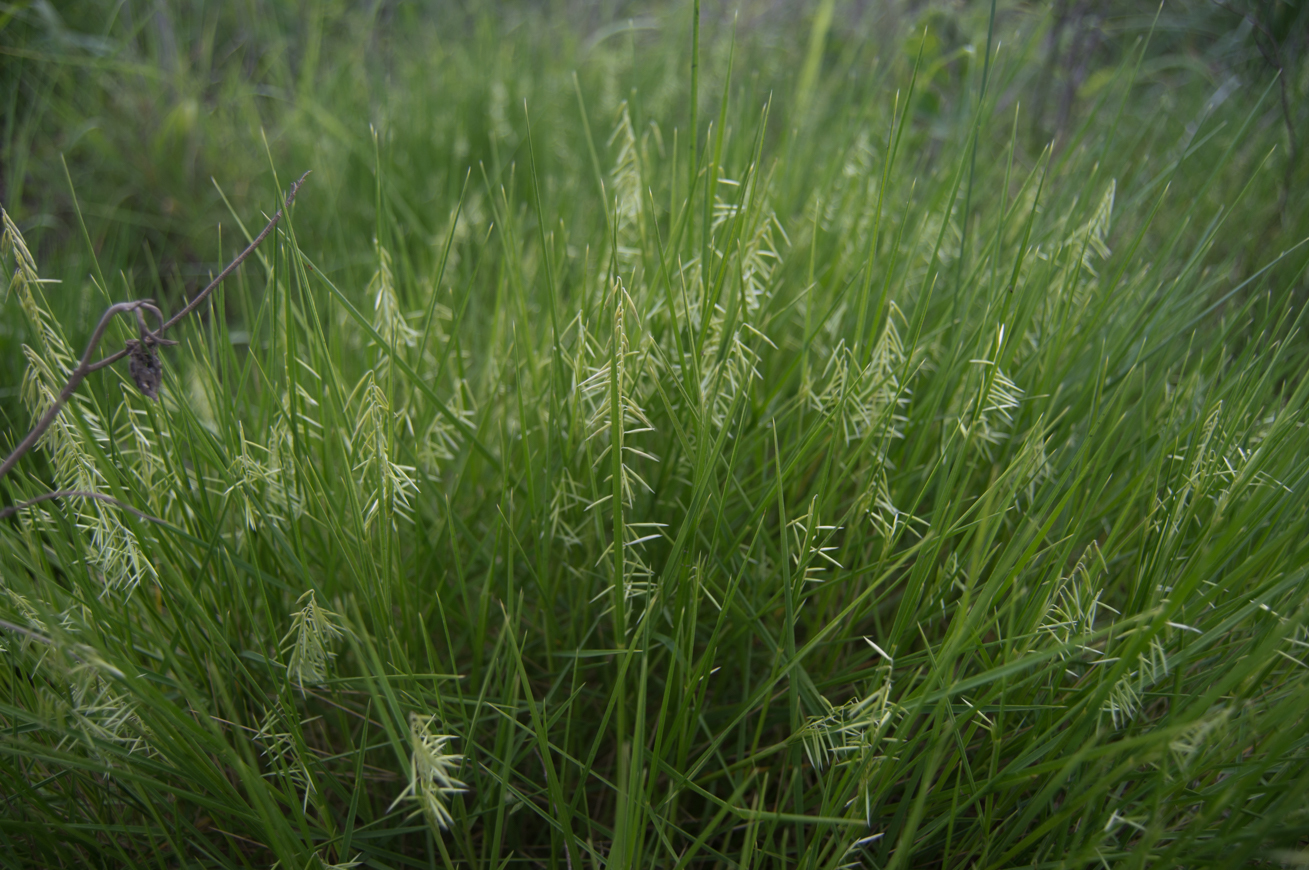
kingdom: Plantae
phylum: Tracheophyta
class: Liliopsida
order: Poales
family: Poaceae
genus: Melica
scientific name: Melica macra
